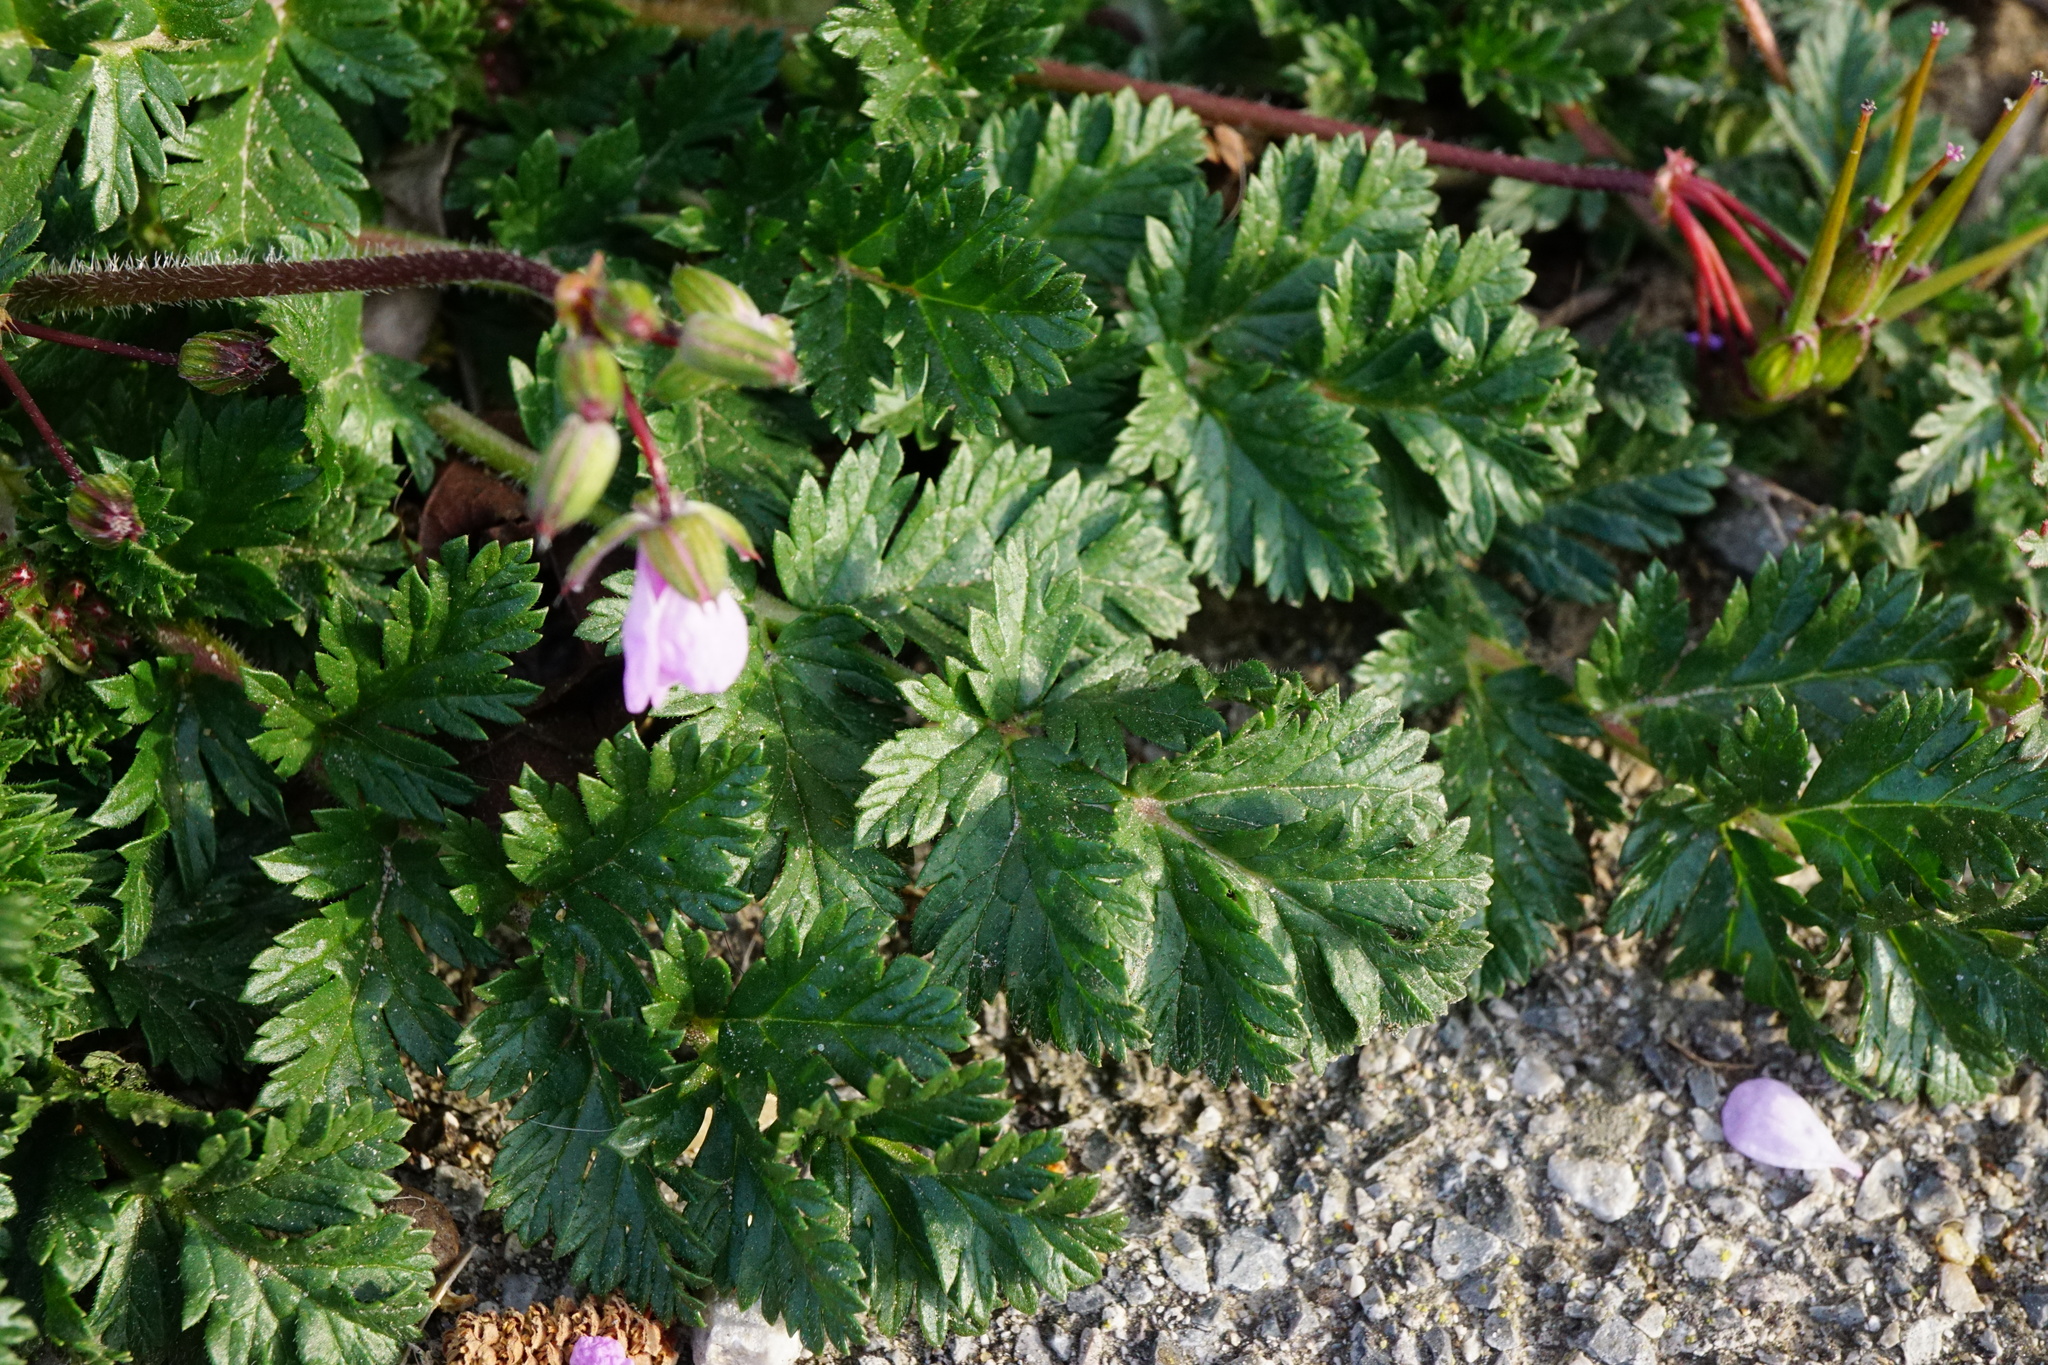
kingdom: Plantae
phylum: Tracheophyta
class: Magnoliopsida
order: Geraniales
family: Geraniaceae
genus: Erodium
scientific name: Erodium cicutarium
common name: Common stork's-bill
